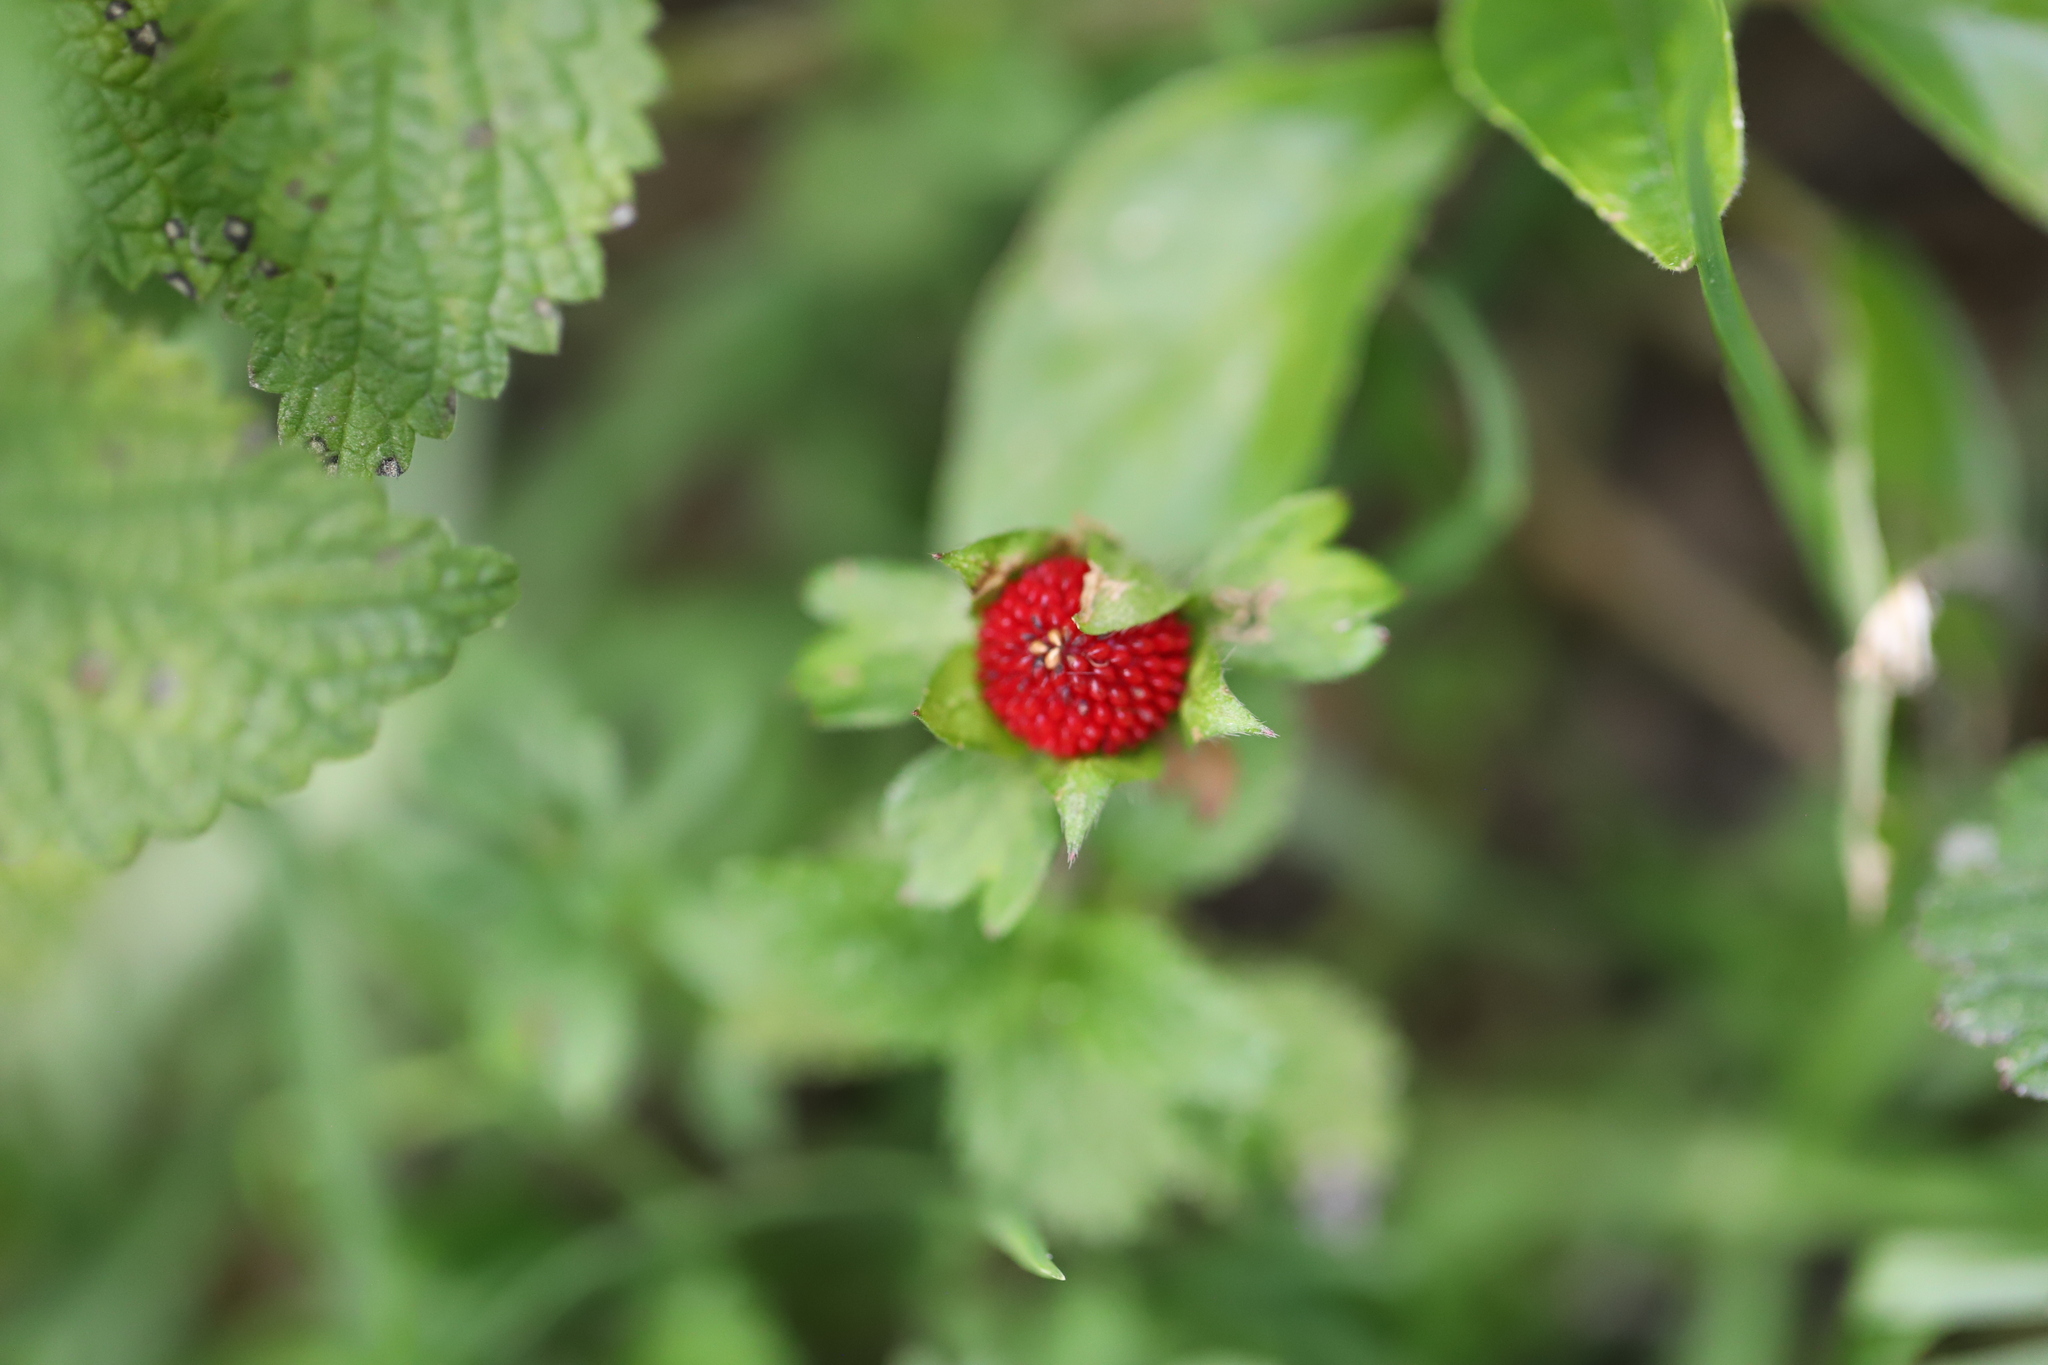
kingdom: Plantae
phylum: Tracheophyta
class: Magnoliopsida
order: Rosales
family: Rosaceae
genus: Potentilla
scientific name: Potentilla indica
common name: Yellow-flowered strawberry
